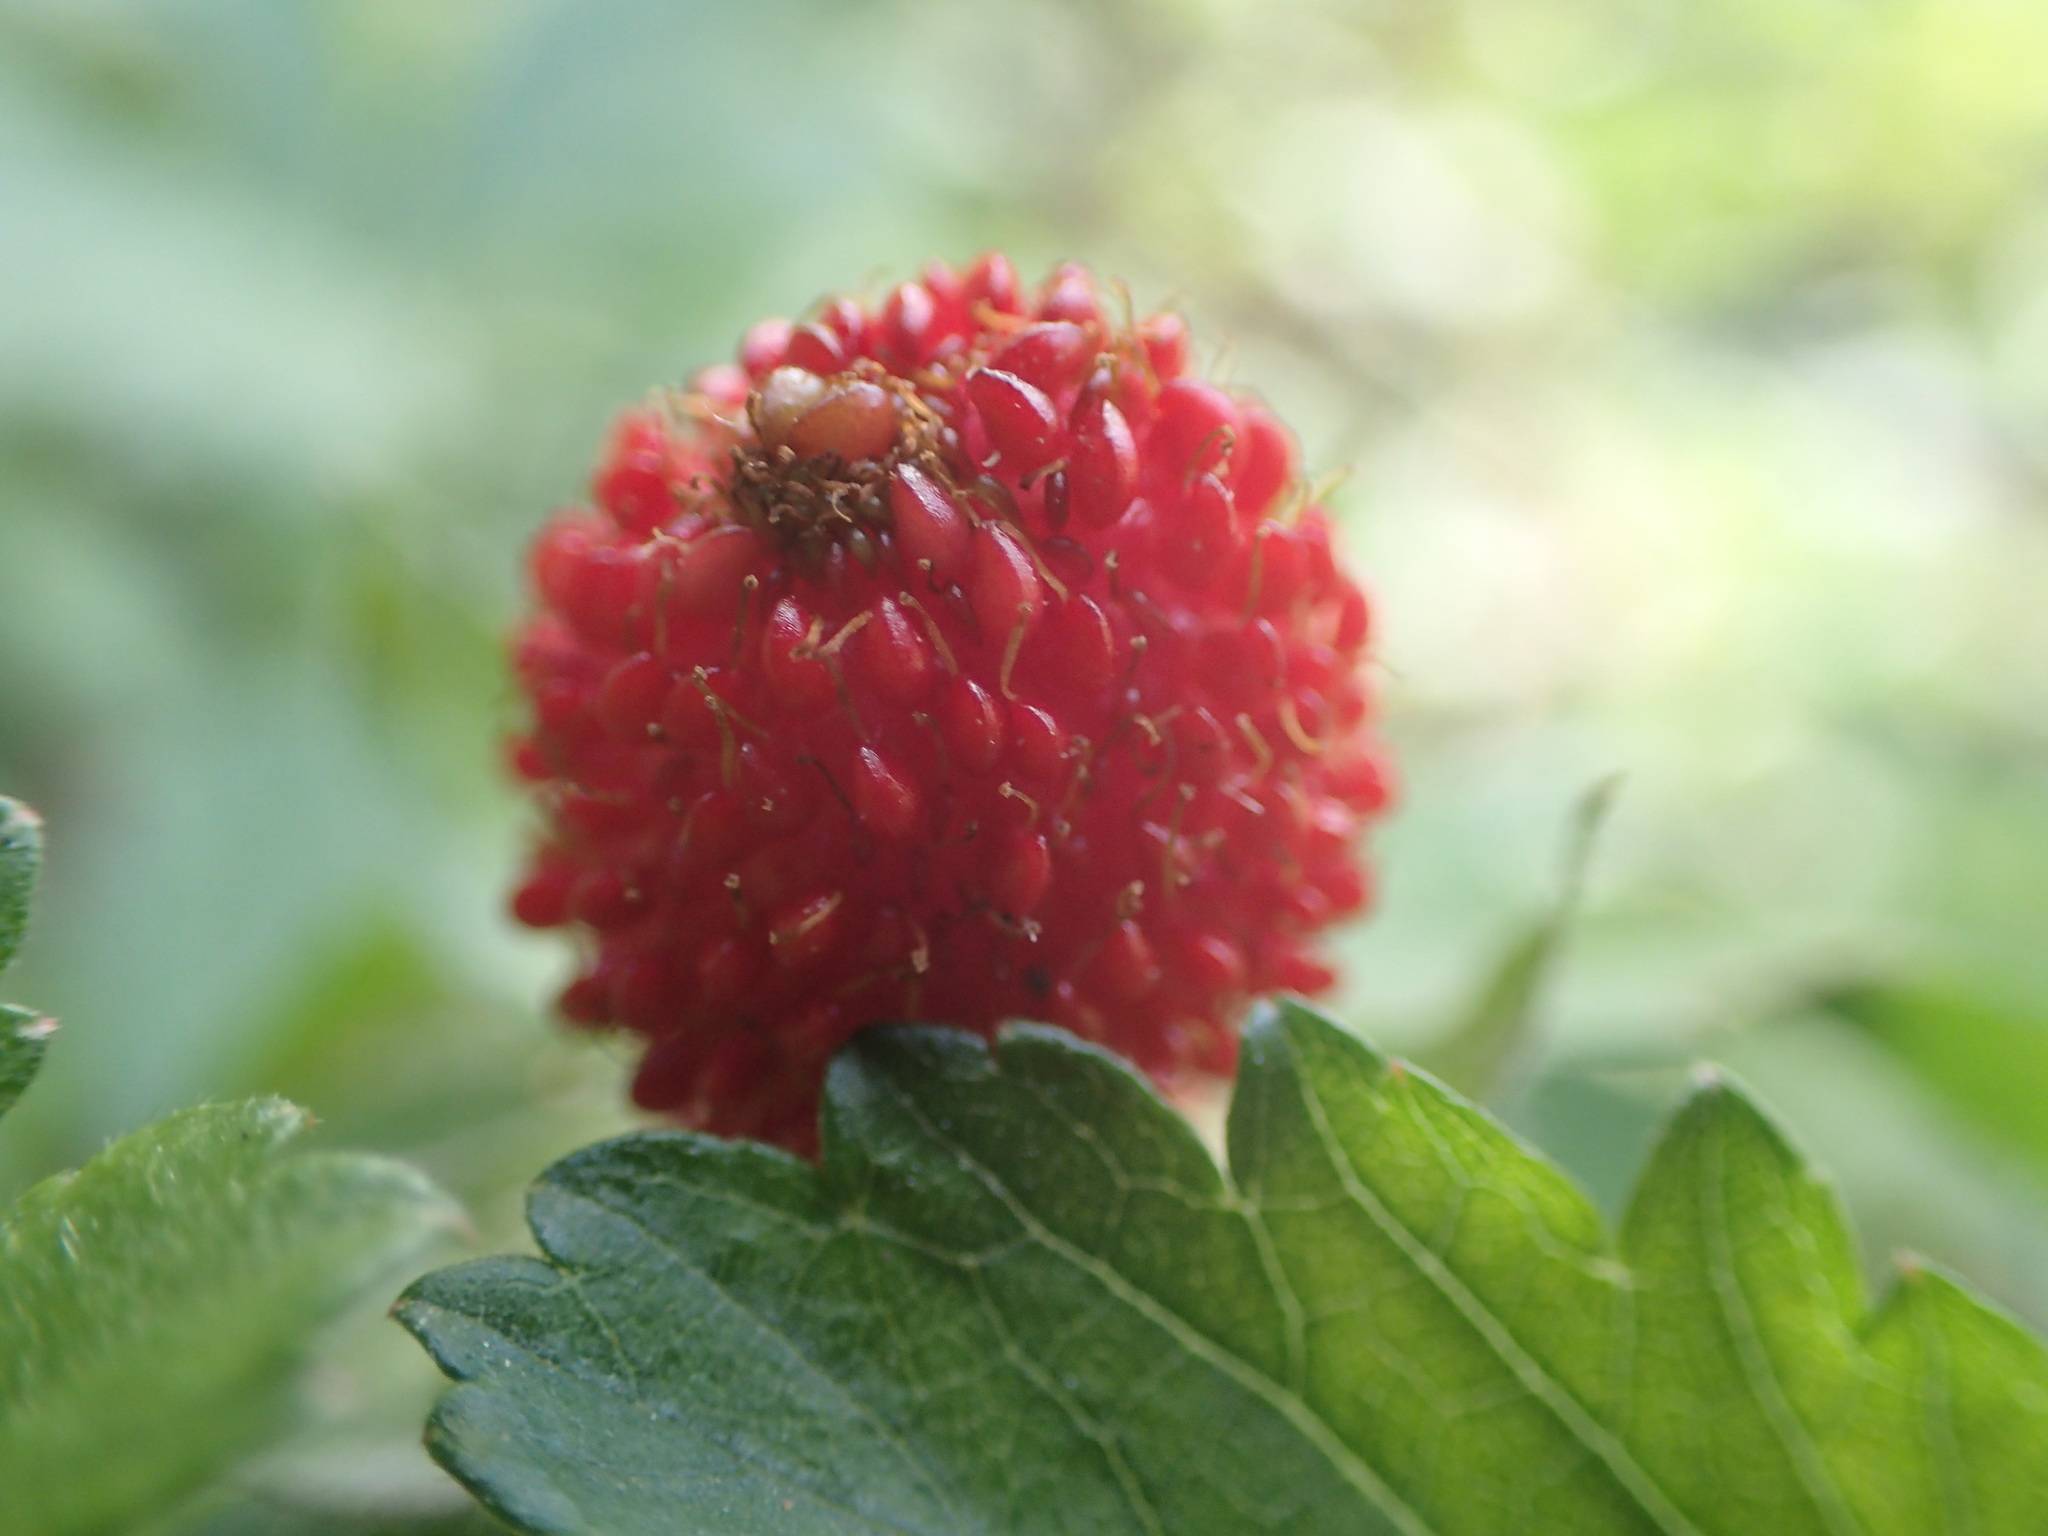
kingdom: Plantae
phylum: Tracheophyta
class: Magnoliopsida
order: Rosales
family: Rosaceae
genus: Potentilla
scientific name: Potentilla indica
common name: Yellow-flowered strawberry
